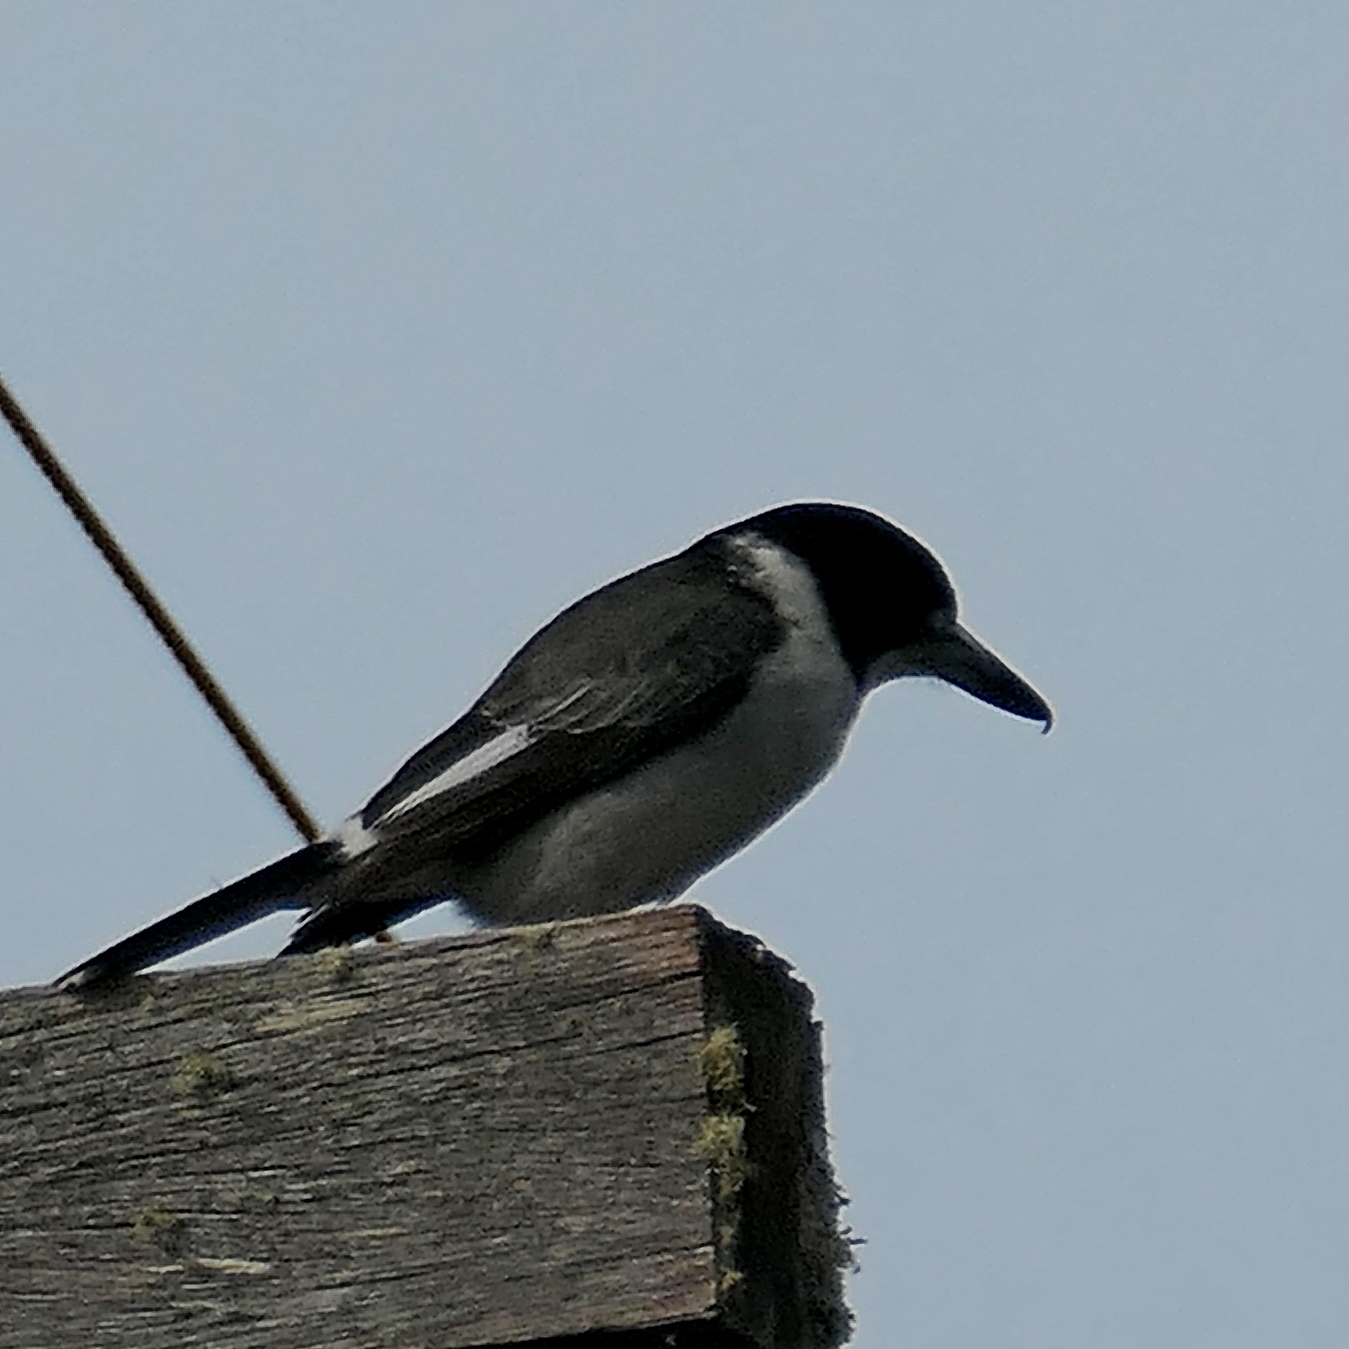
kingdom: Animalia
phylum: Chordata
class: Aves
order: Passeriformes
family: Cracticidae
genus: Cracticus
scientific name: Cracticus torquatus
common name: Grey butcherbird
